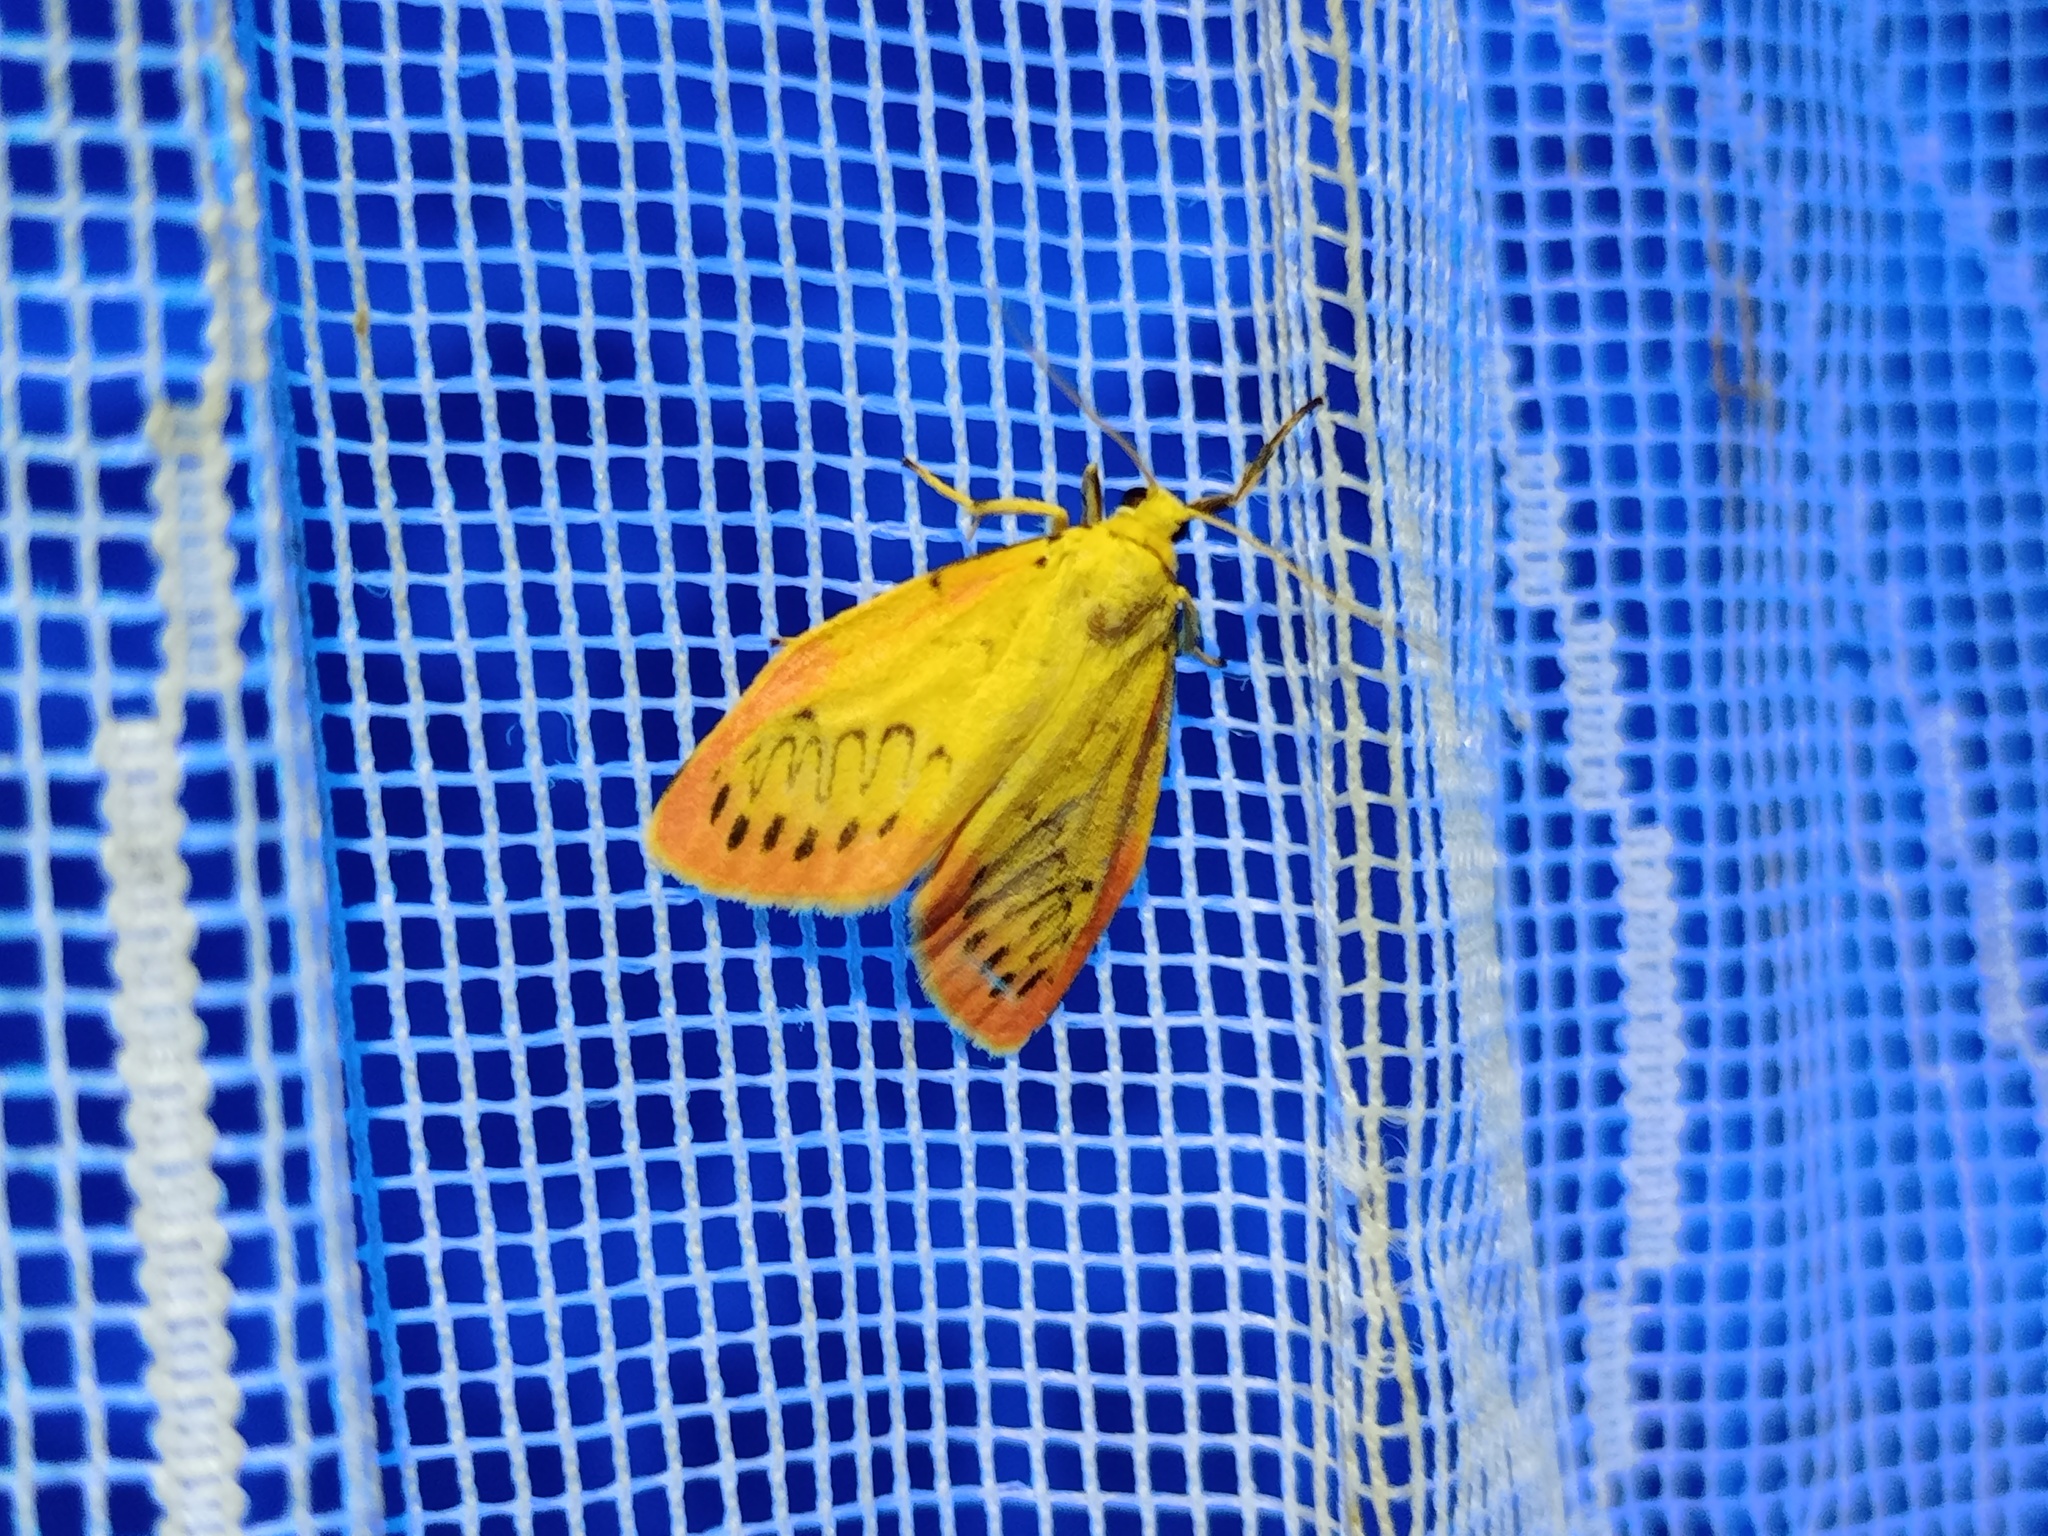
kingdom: Animalia
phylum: Arthropoda
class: Insecta
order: Lepidoptera
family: Erebidae
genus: Miltochrista
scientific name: Miltochrista miniata
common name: Rosy footman
